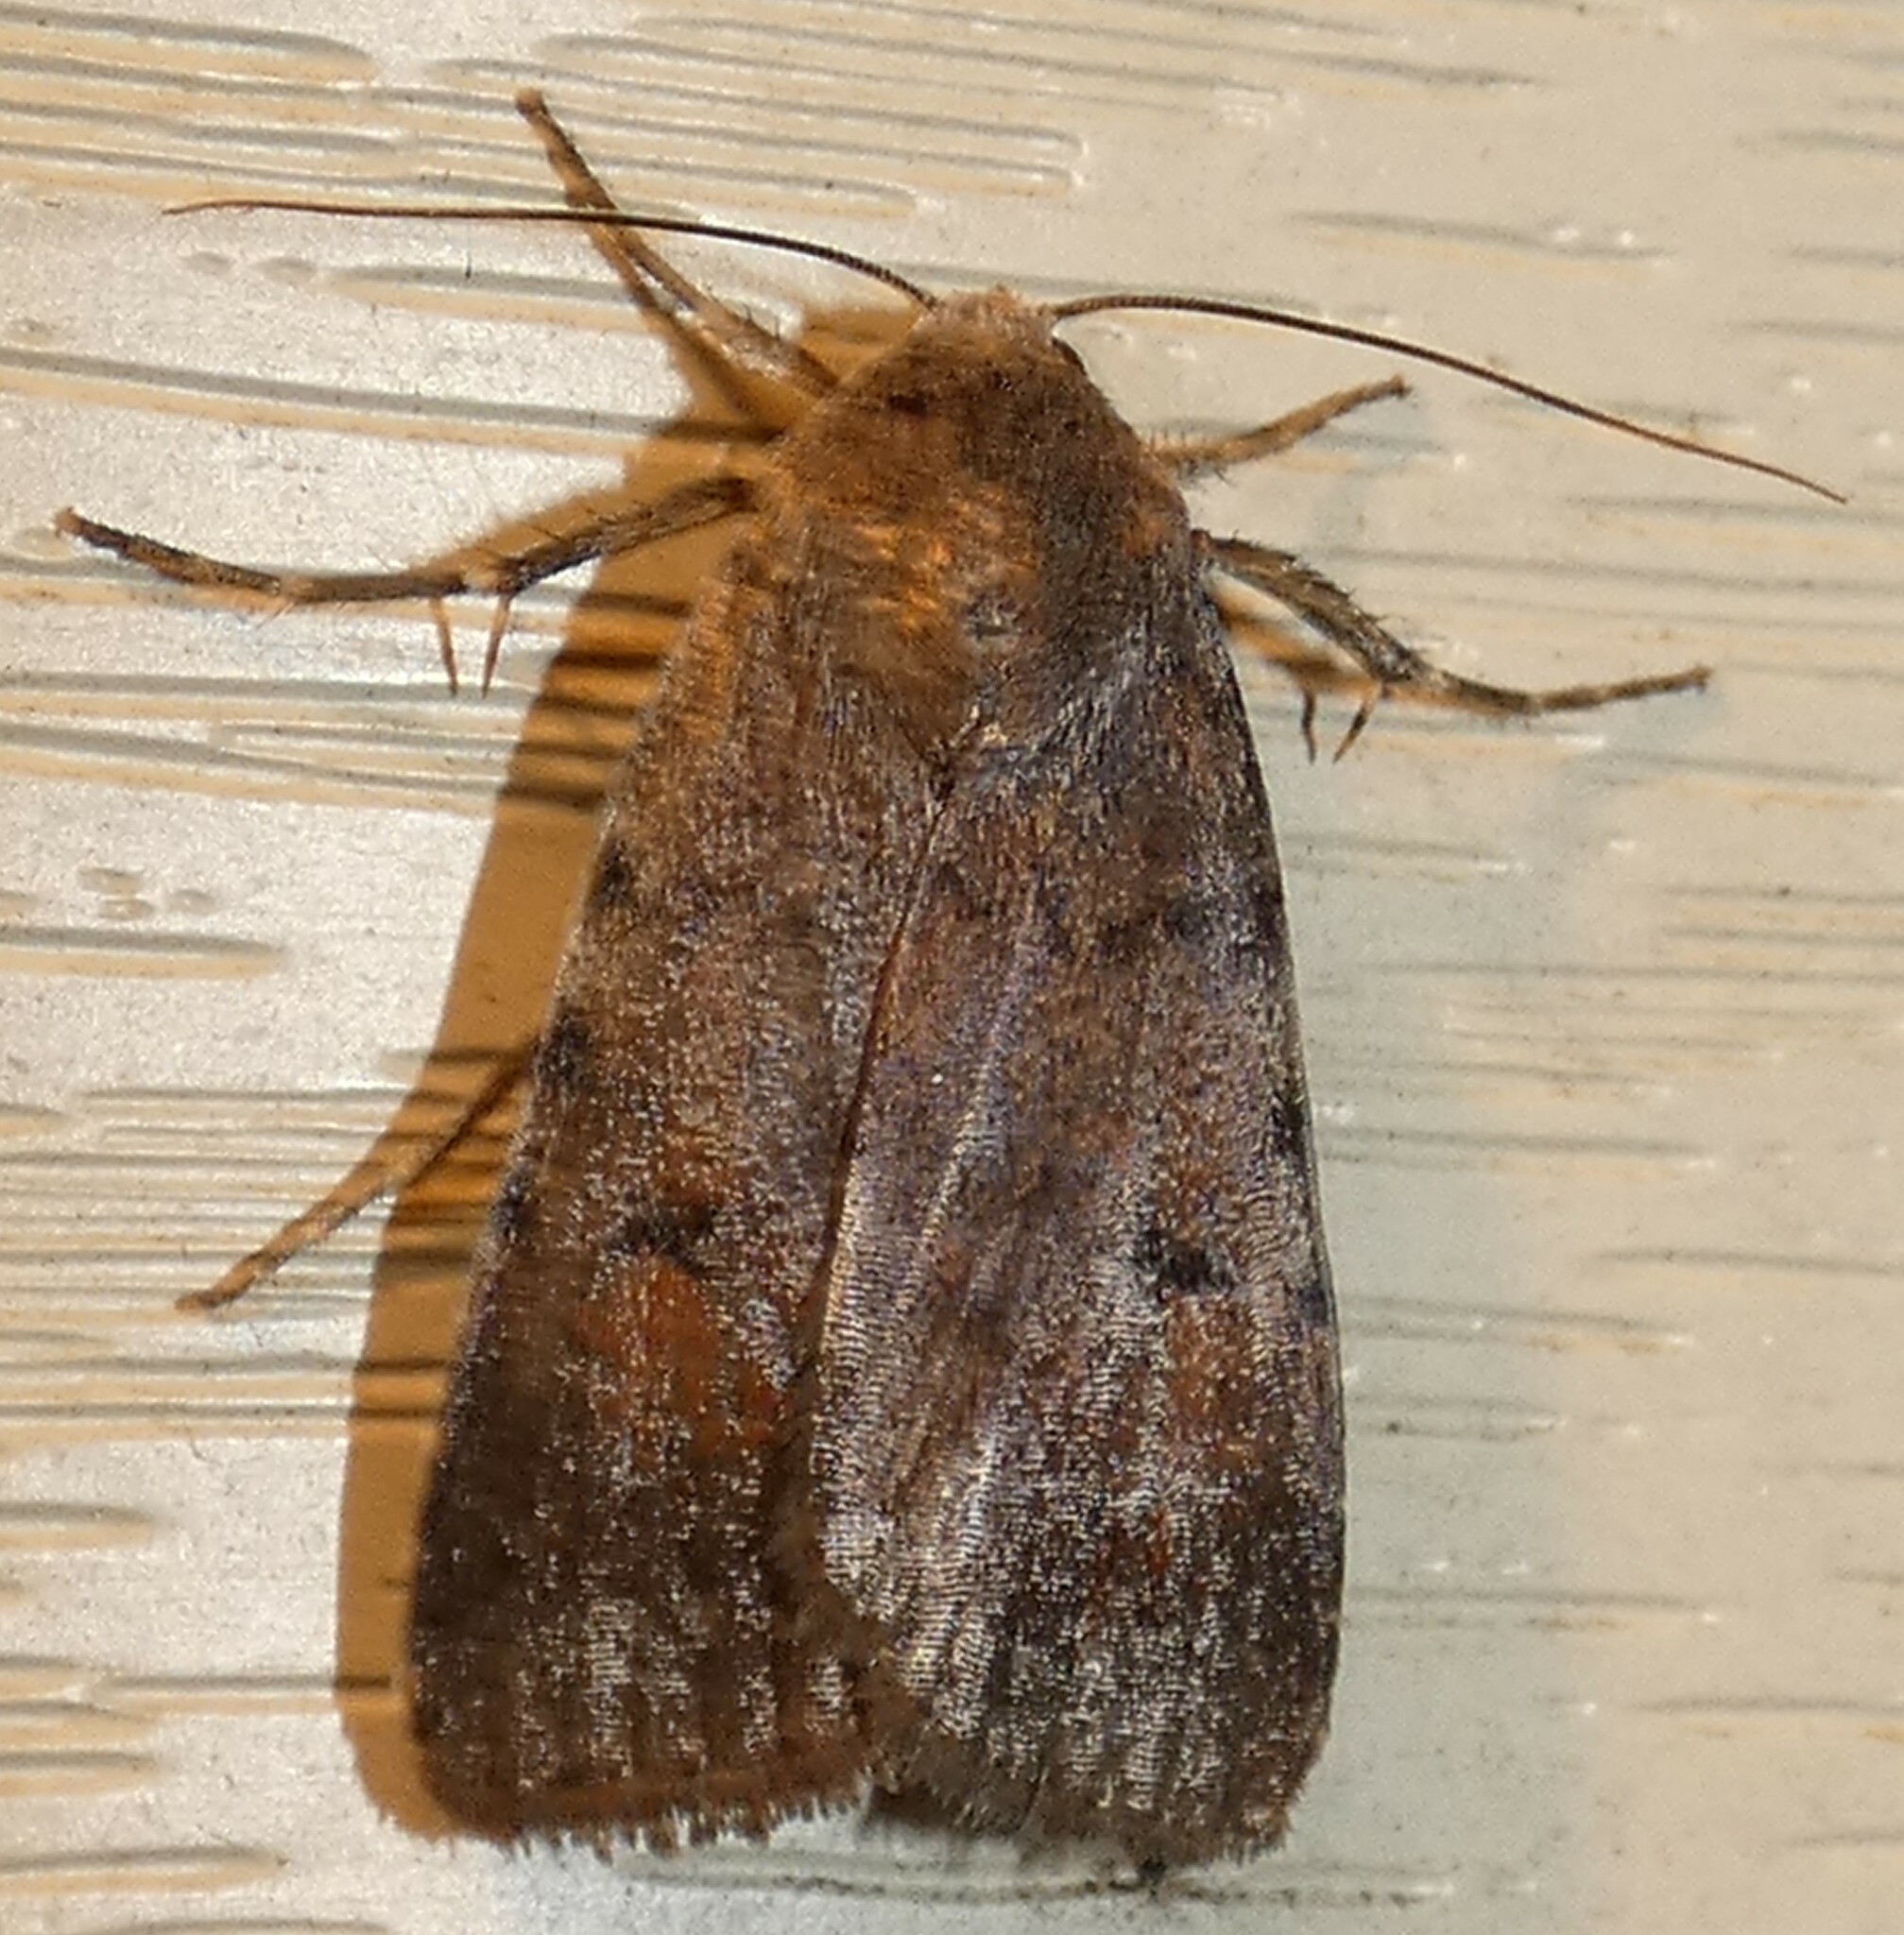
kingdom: Animalia
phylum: Arthropoda
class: Insecta
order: Lepidoptera
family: Noctuidae
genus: Anicla
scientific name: Anicla illapsa
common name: Snowy dart
